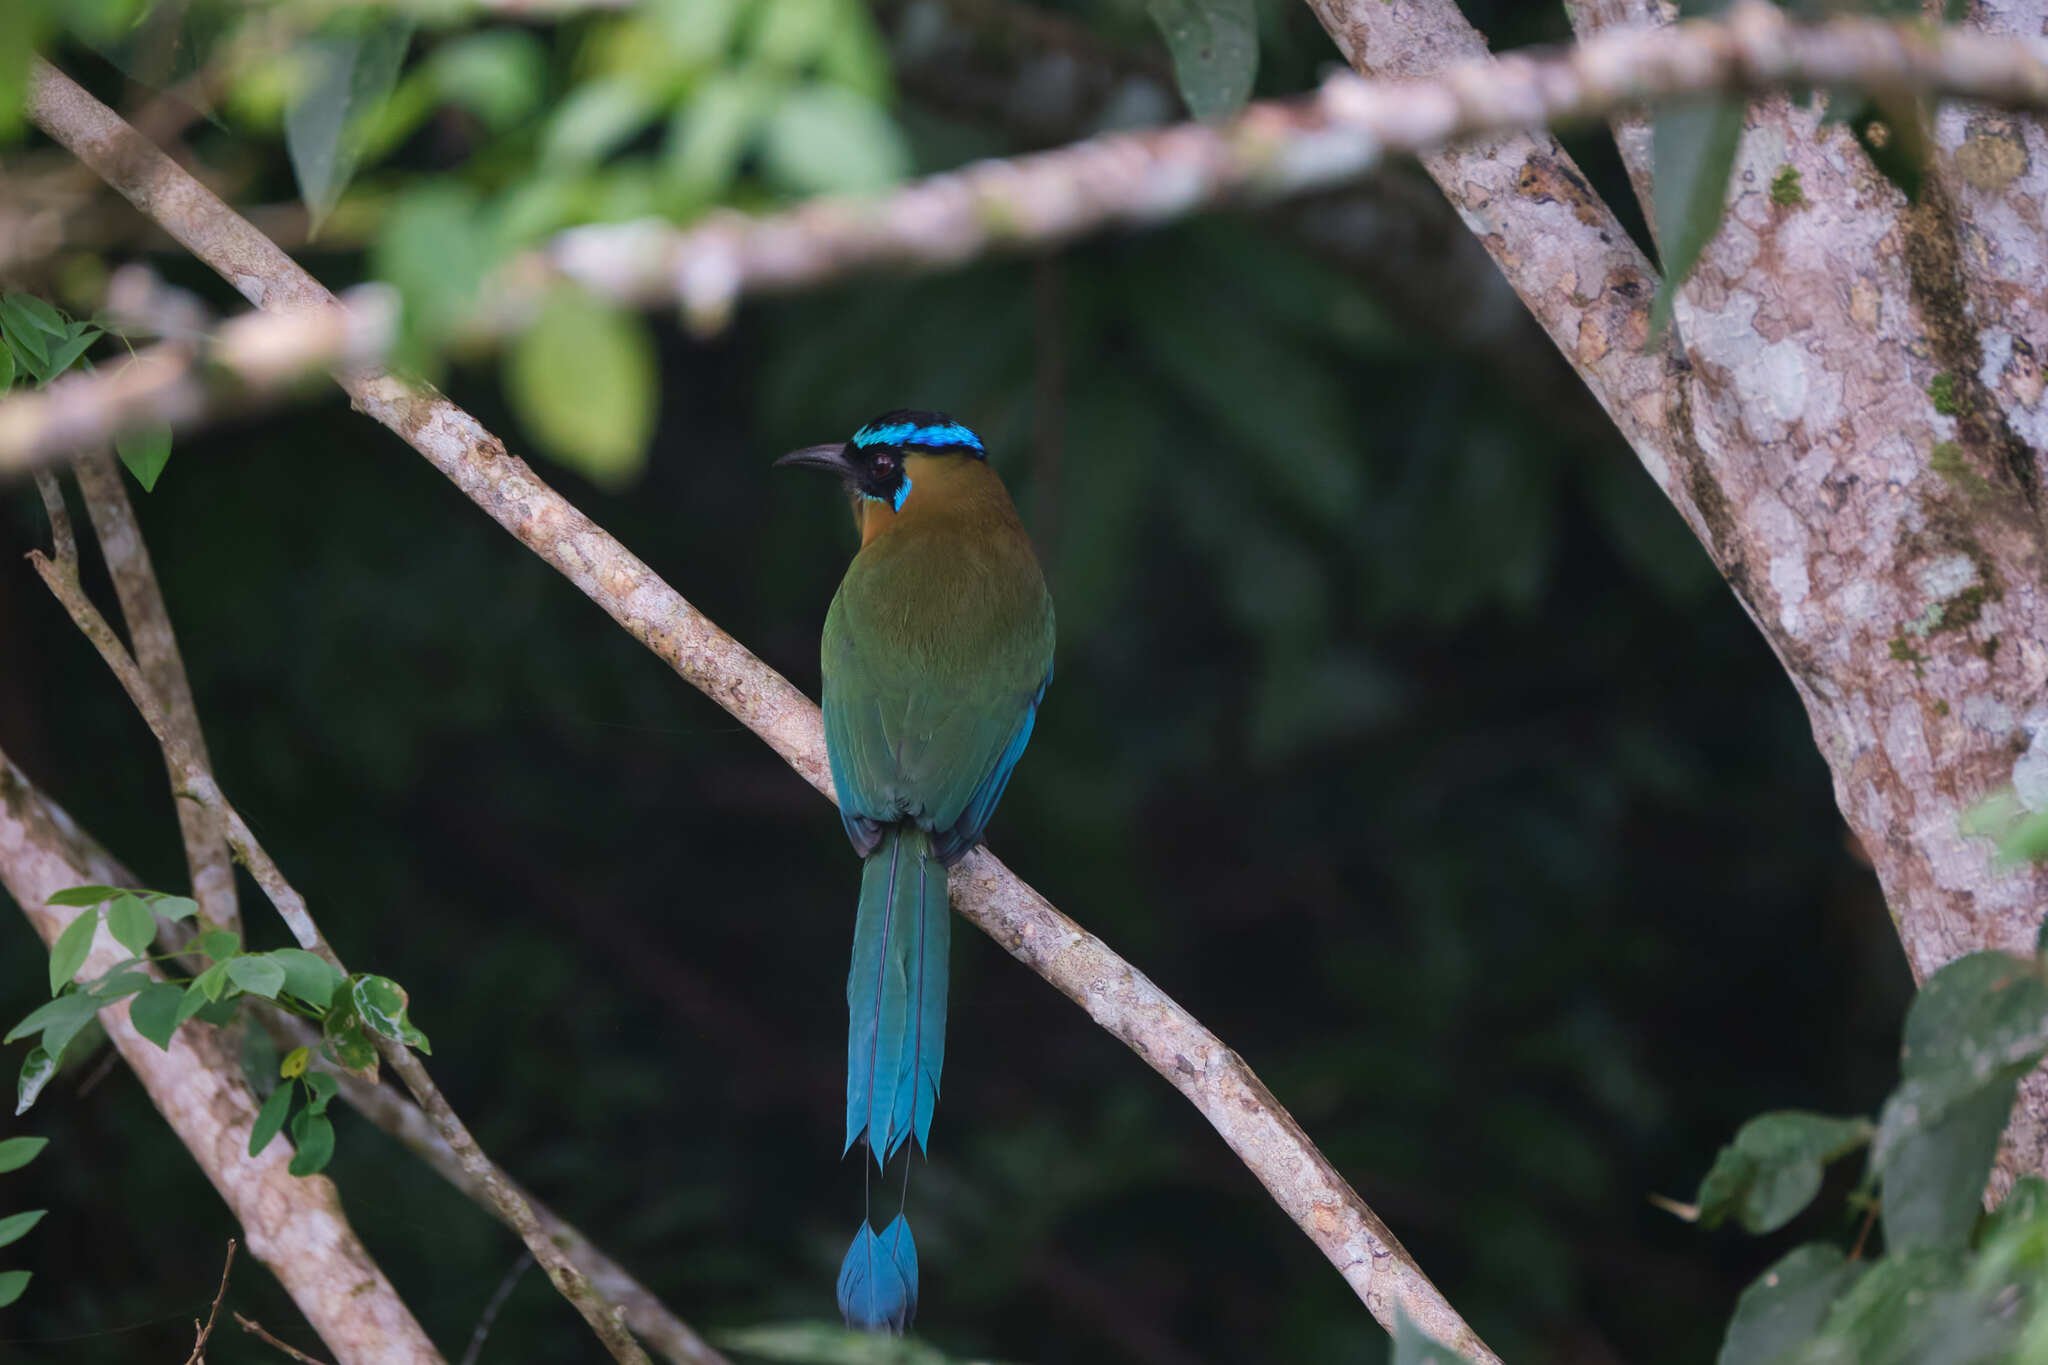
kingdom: Animalia
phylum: Chordata
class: Aves
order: Coraciiformes
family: Momotidae
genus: Momotus
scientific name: Momotus lessonii
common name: Lesson's motmot
